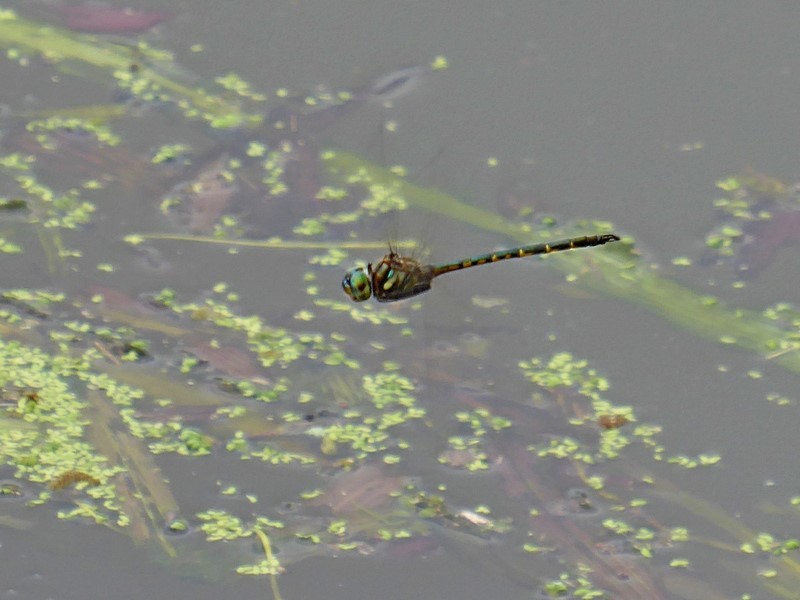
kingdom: Animalia
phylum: Arthropoda
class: Insecta
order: Odonata
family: Corduliidae
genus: Hemicordulia
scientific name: Hemicordulia australiae
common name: Sentry dragonfly
